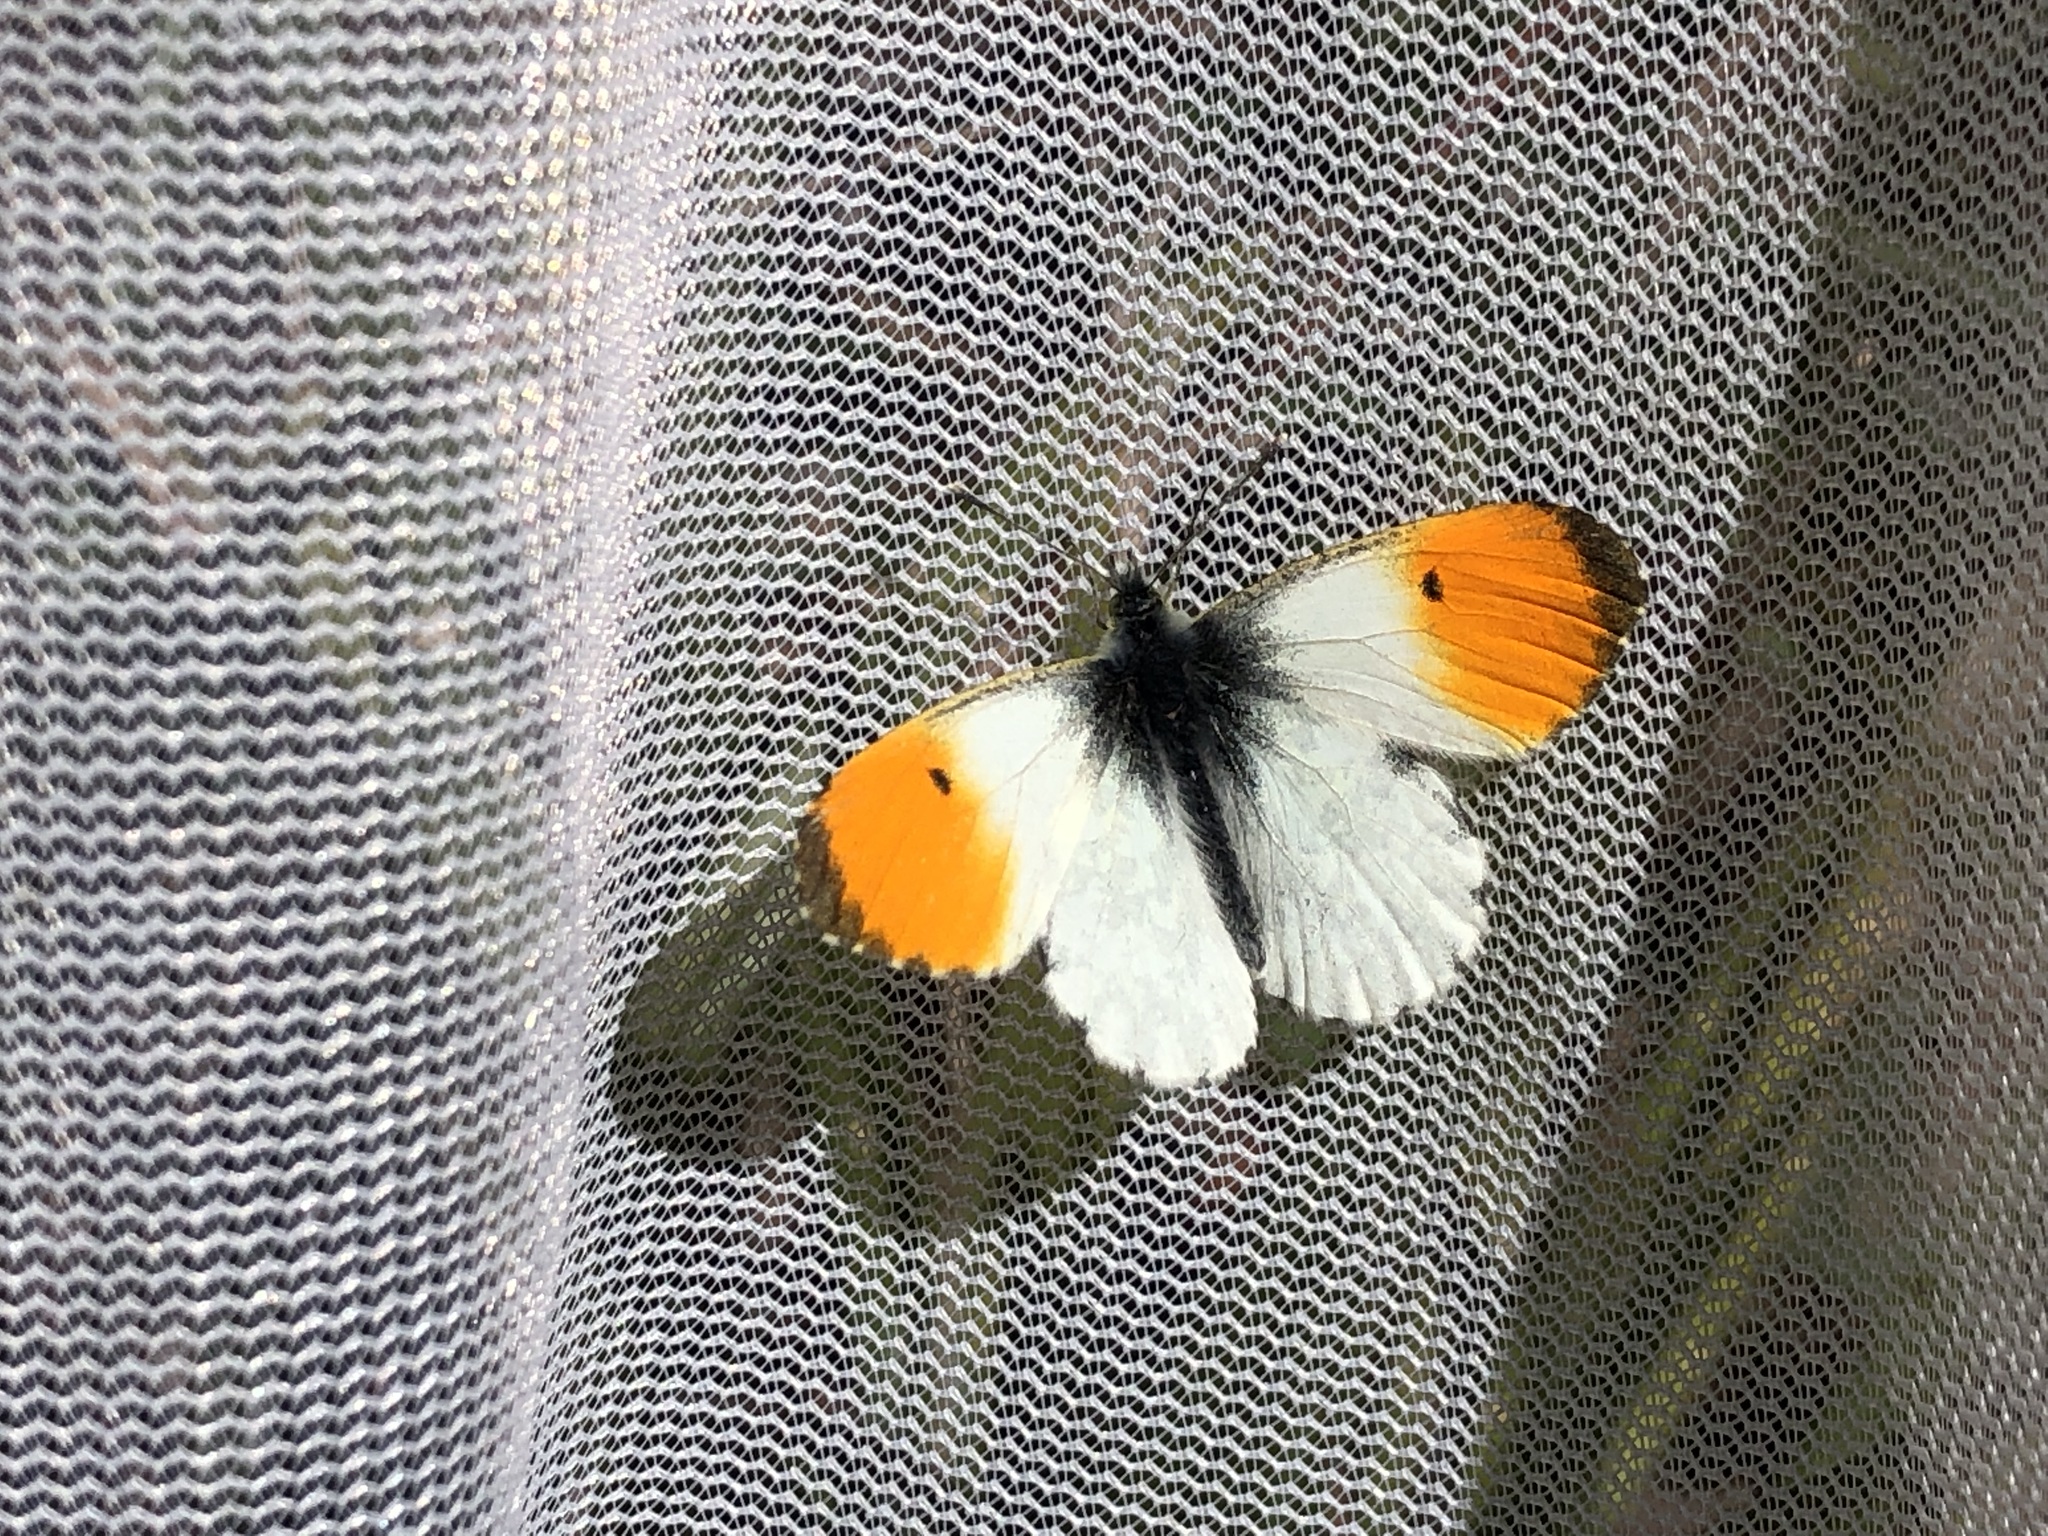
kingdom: Animalia
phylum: Arthropoda
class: Insecta
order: Lepidoptera
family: Pieridae
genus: Anthocharis
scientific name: Anthocharis cardamines
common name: Orange-tip
